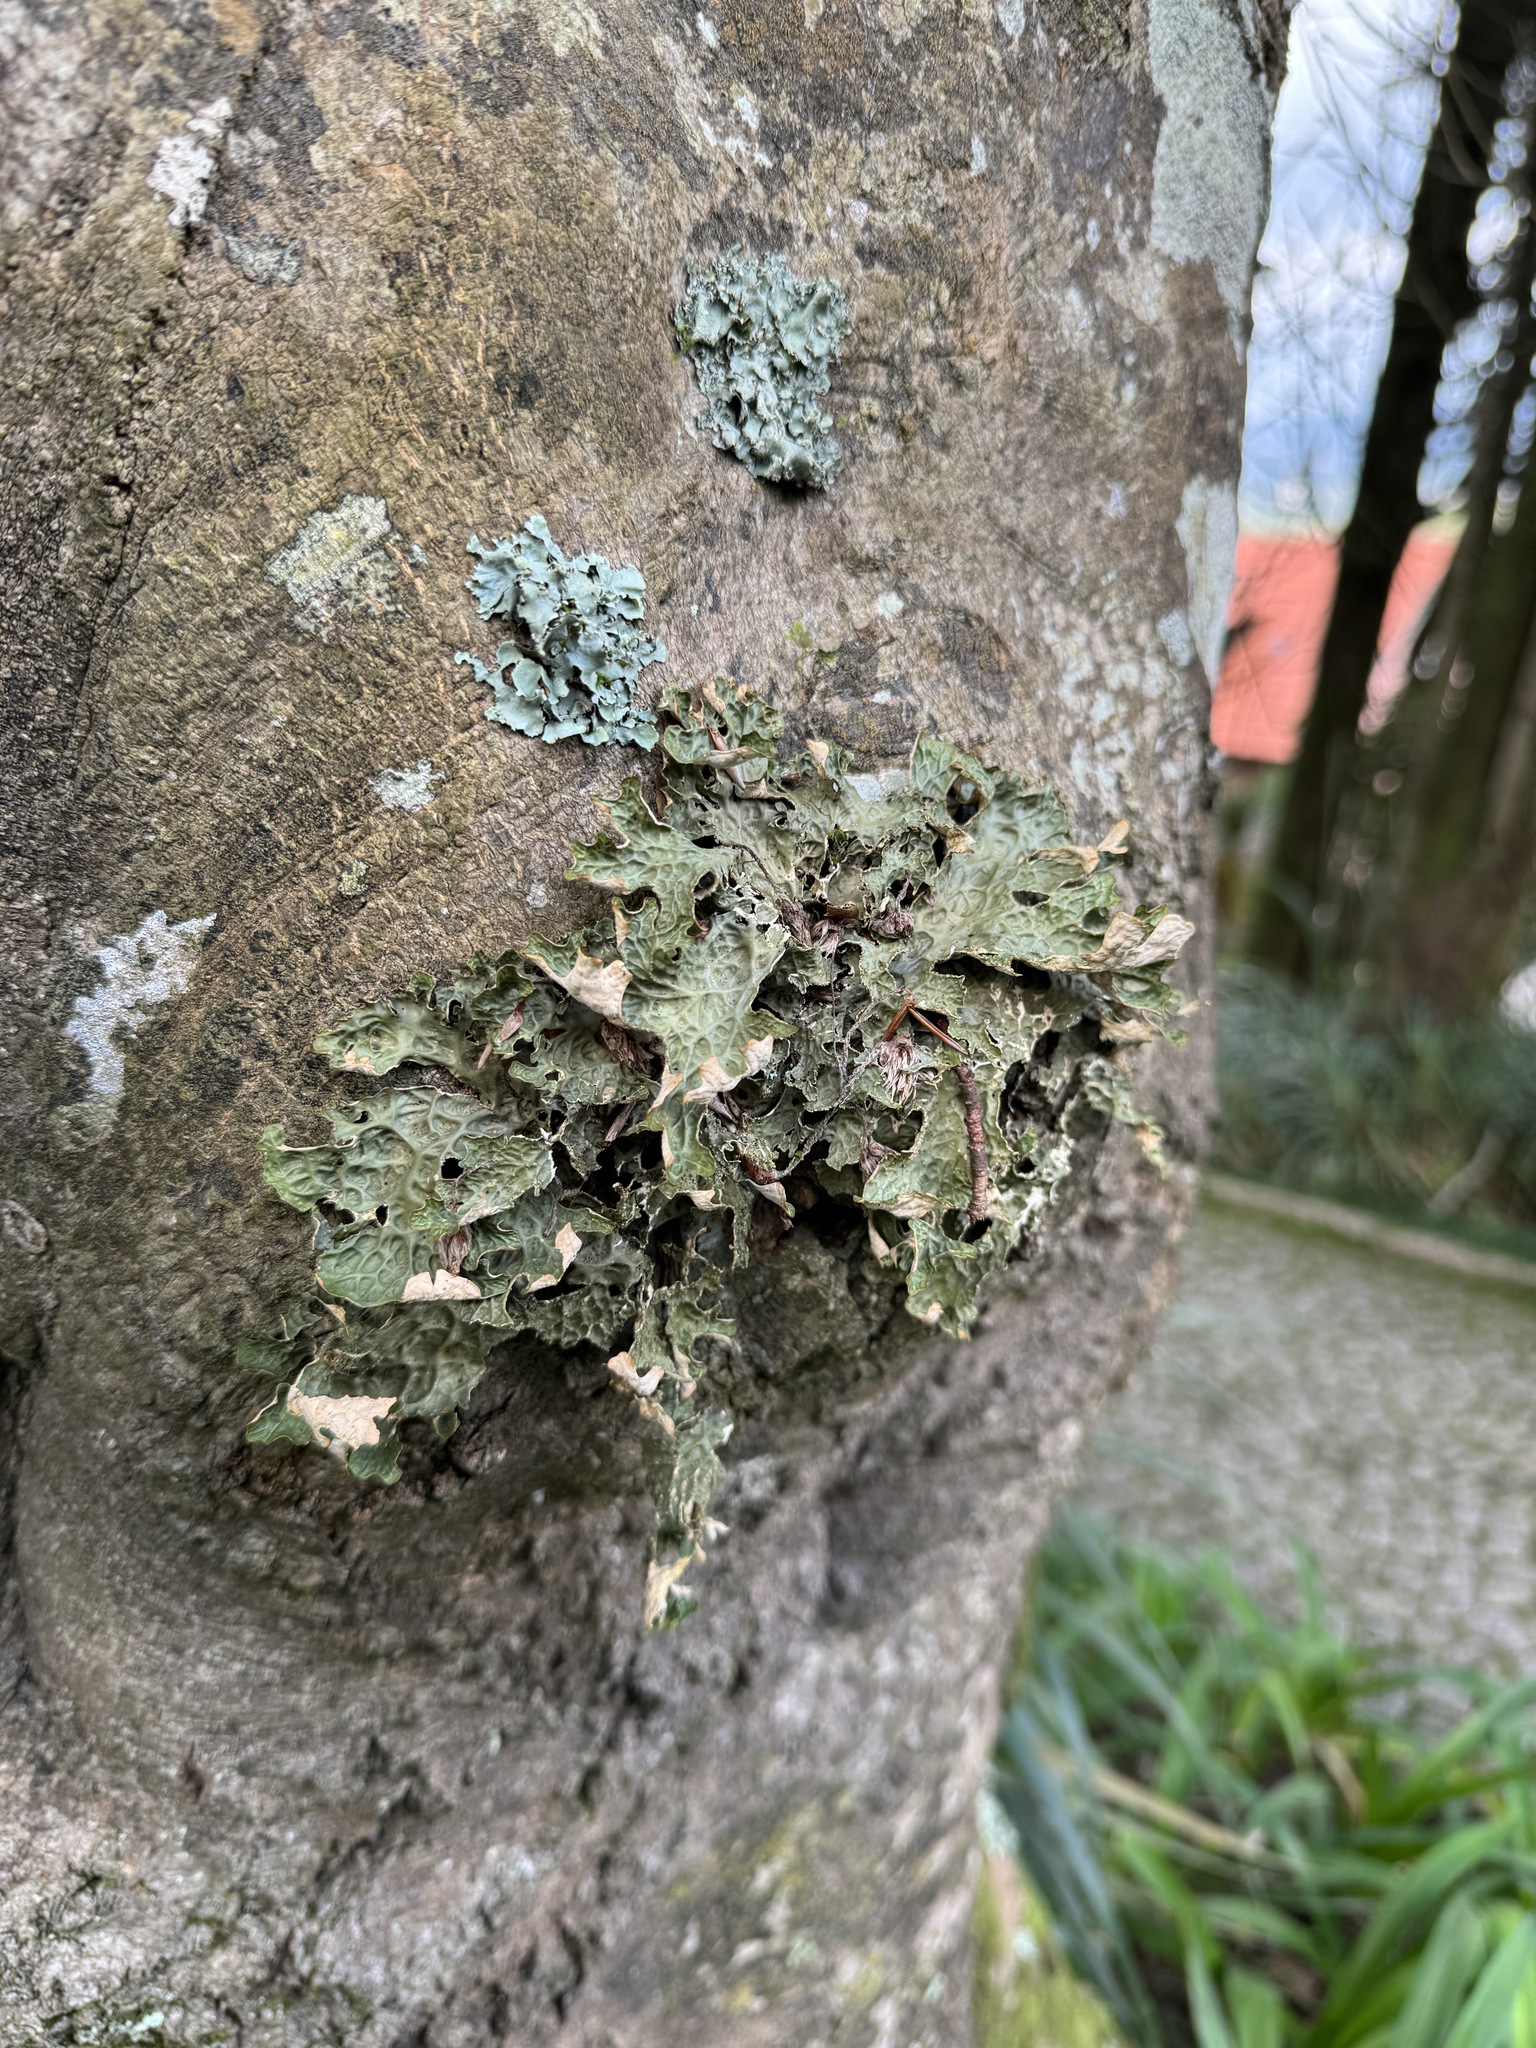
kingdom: Fungi
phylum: Ascomycota
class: Lecanoromycetes
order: Peltigerales
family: Lobariaceae
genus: Lobaria
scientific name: Lobaria pulmonaria
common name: Lungwort
